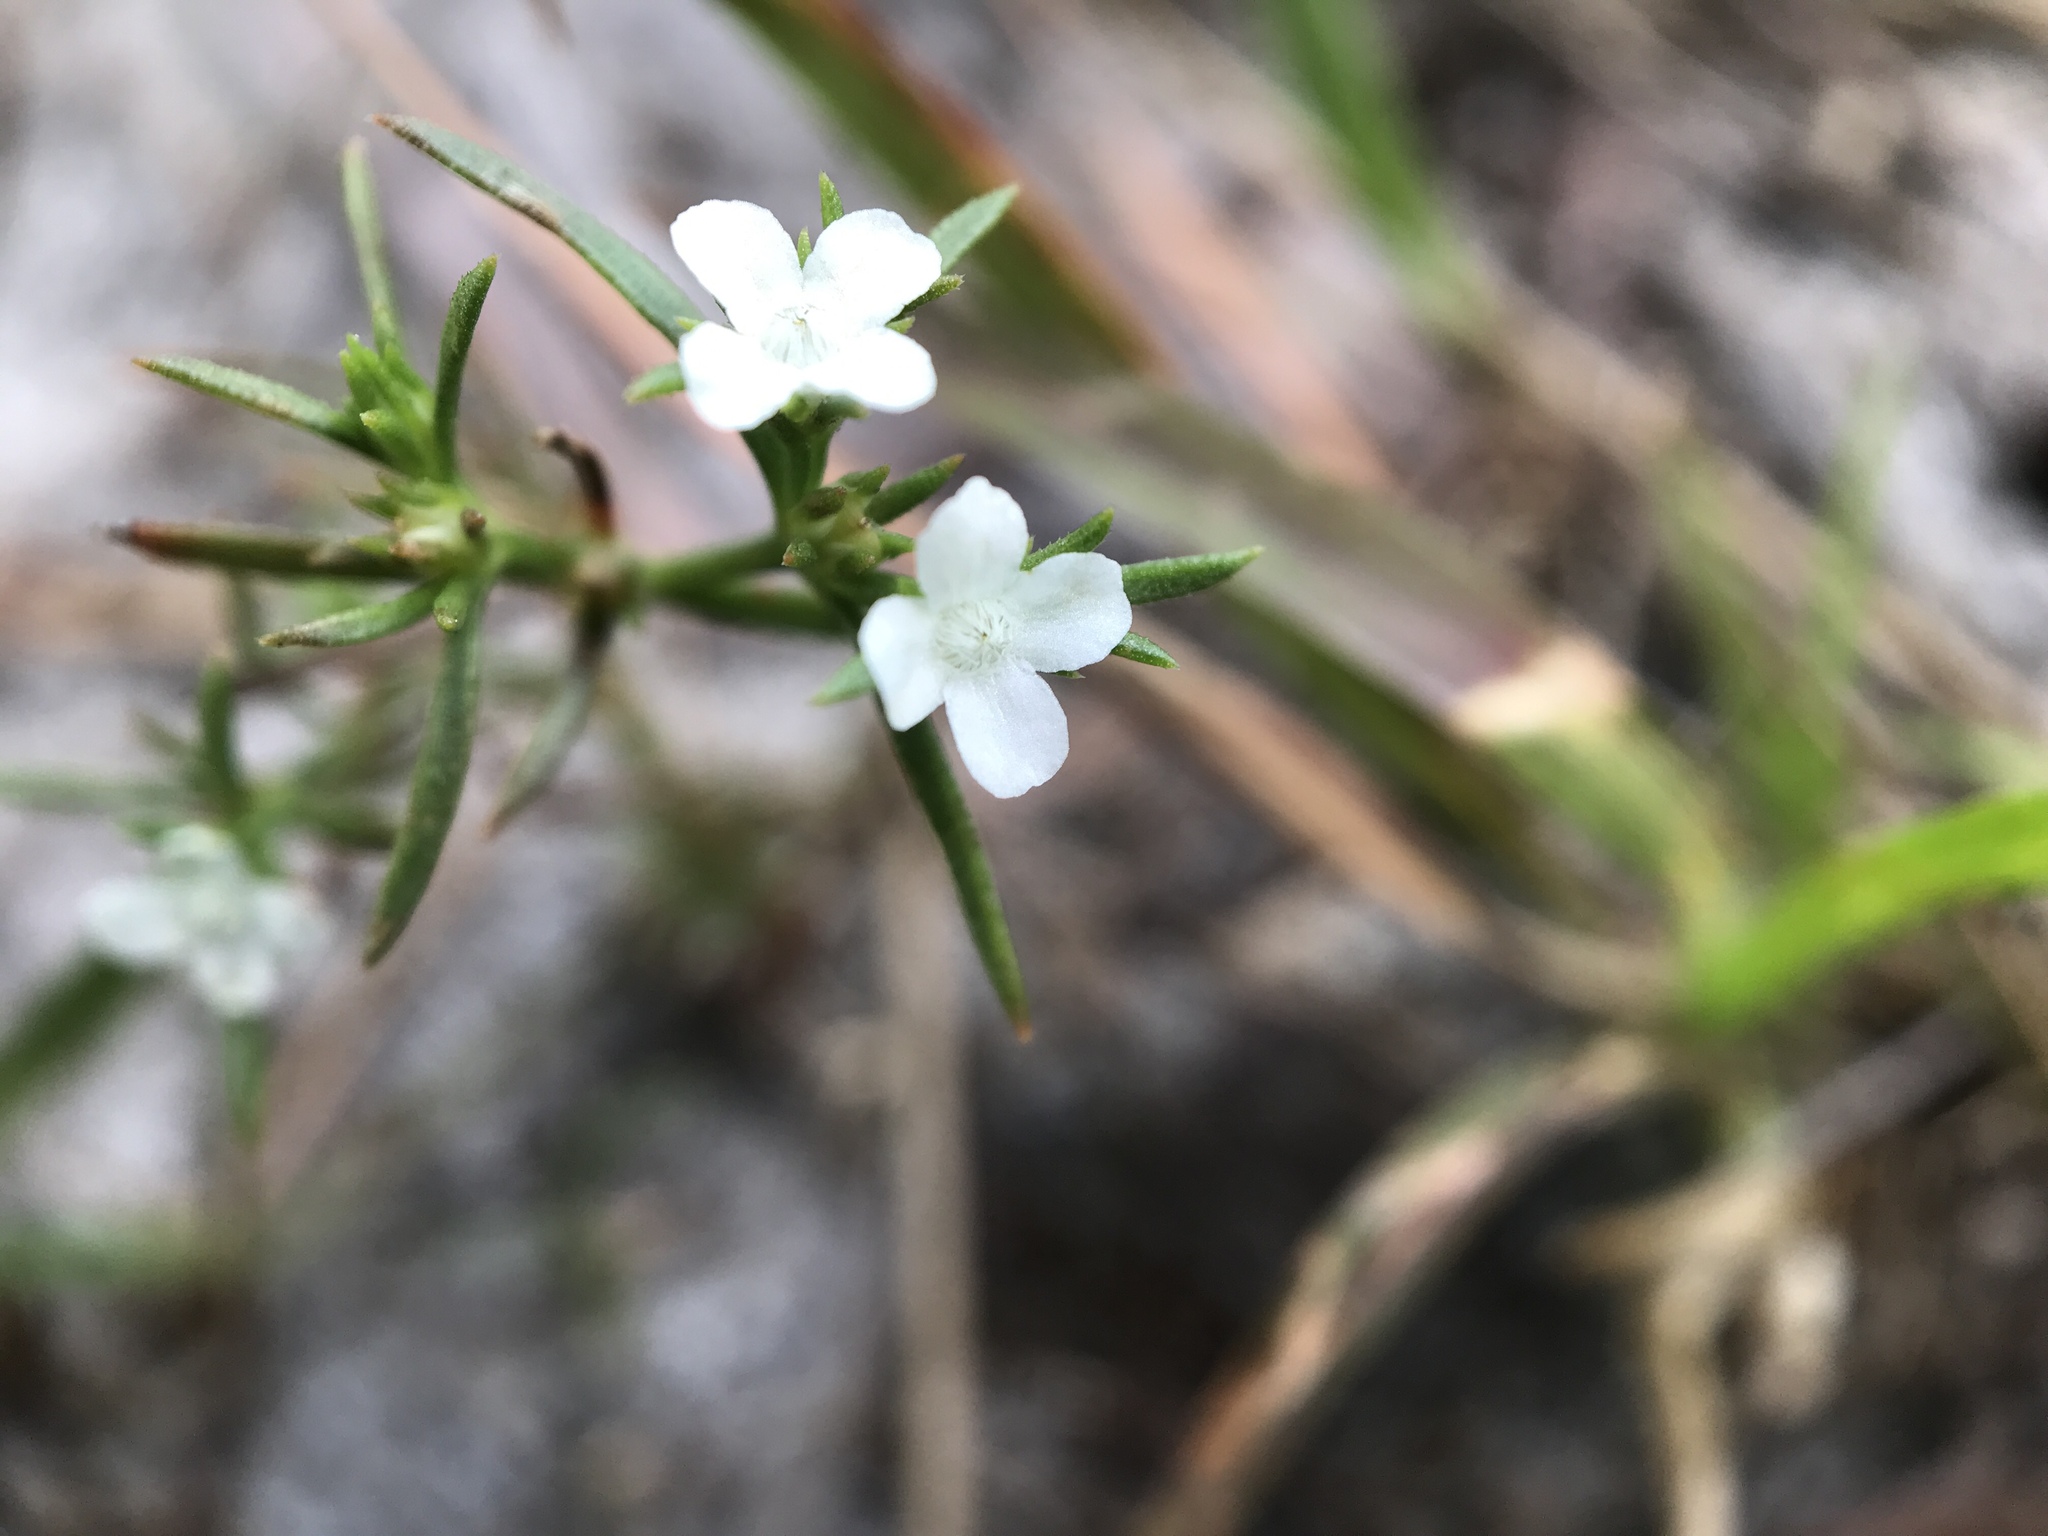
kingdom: Plantae
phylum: Tracheophyta
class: Magnoliopsida
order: Lamiales
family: Tetrachondraceae
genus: Polypremum
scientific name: Polypremum procumbens
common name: Juniper-leaf
